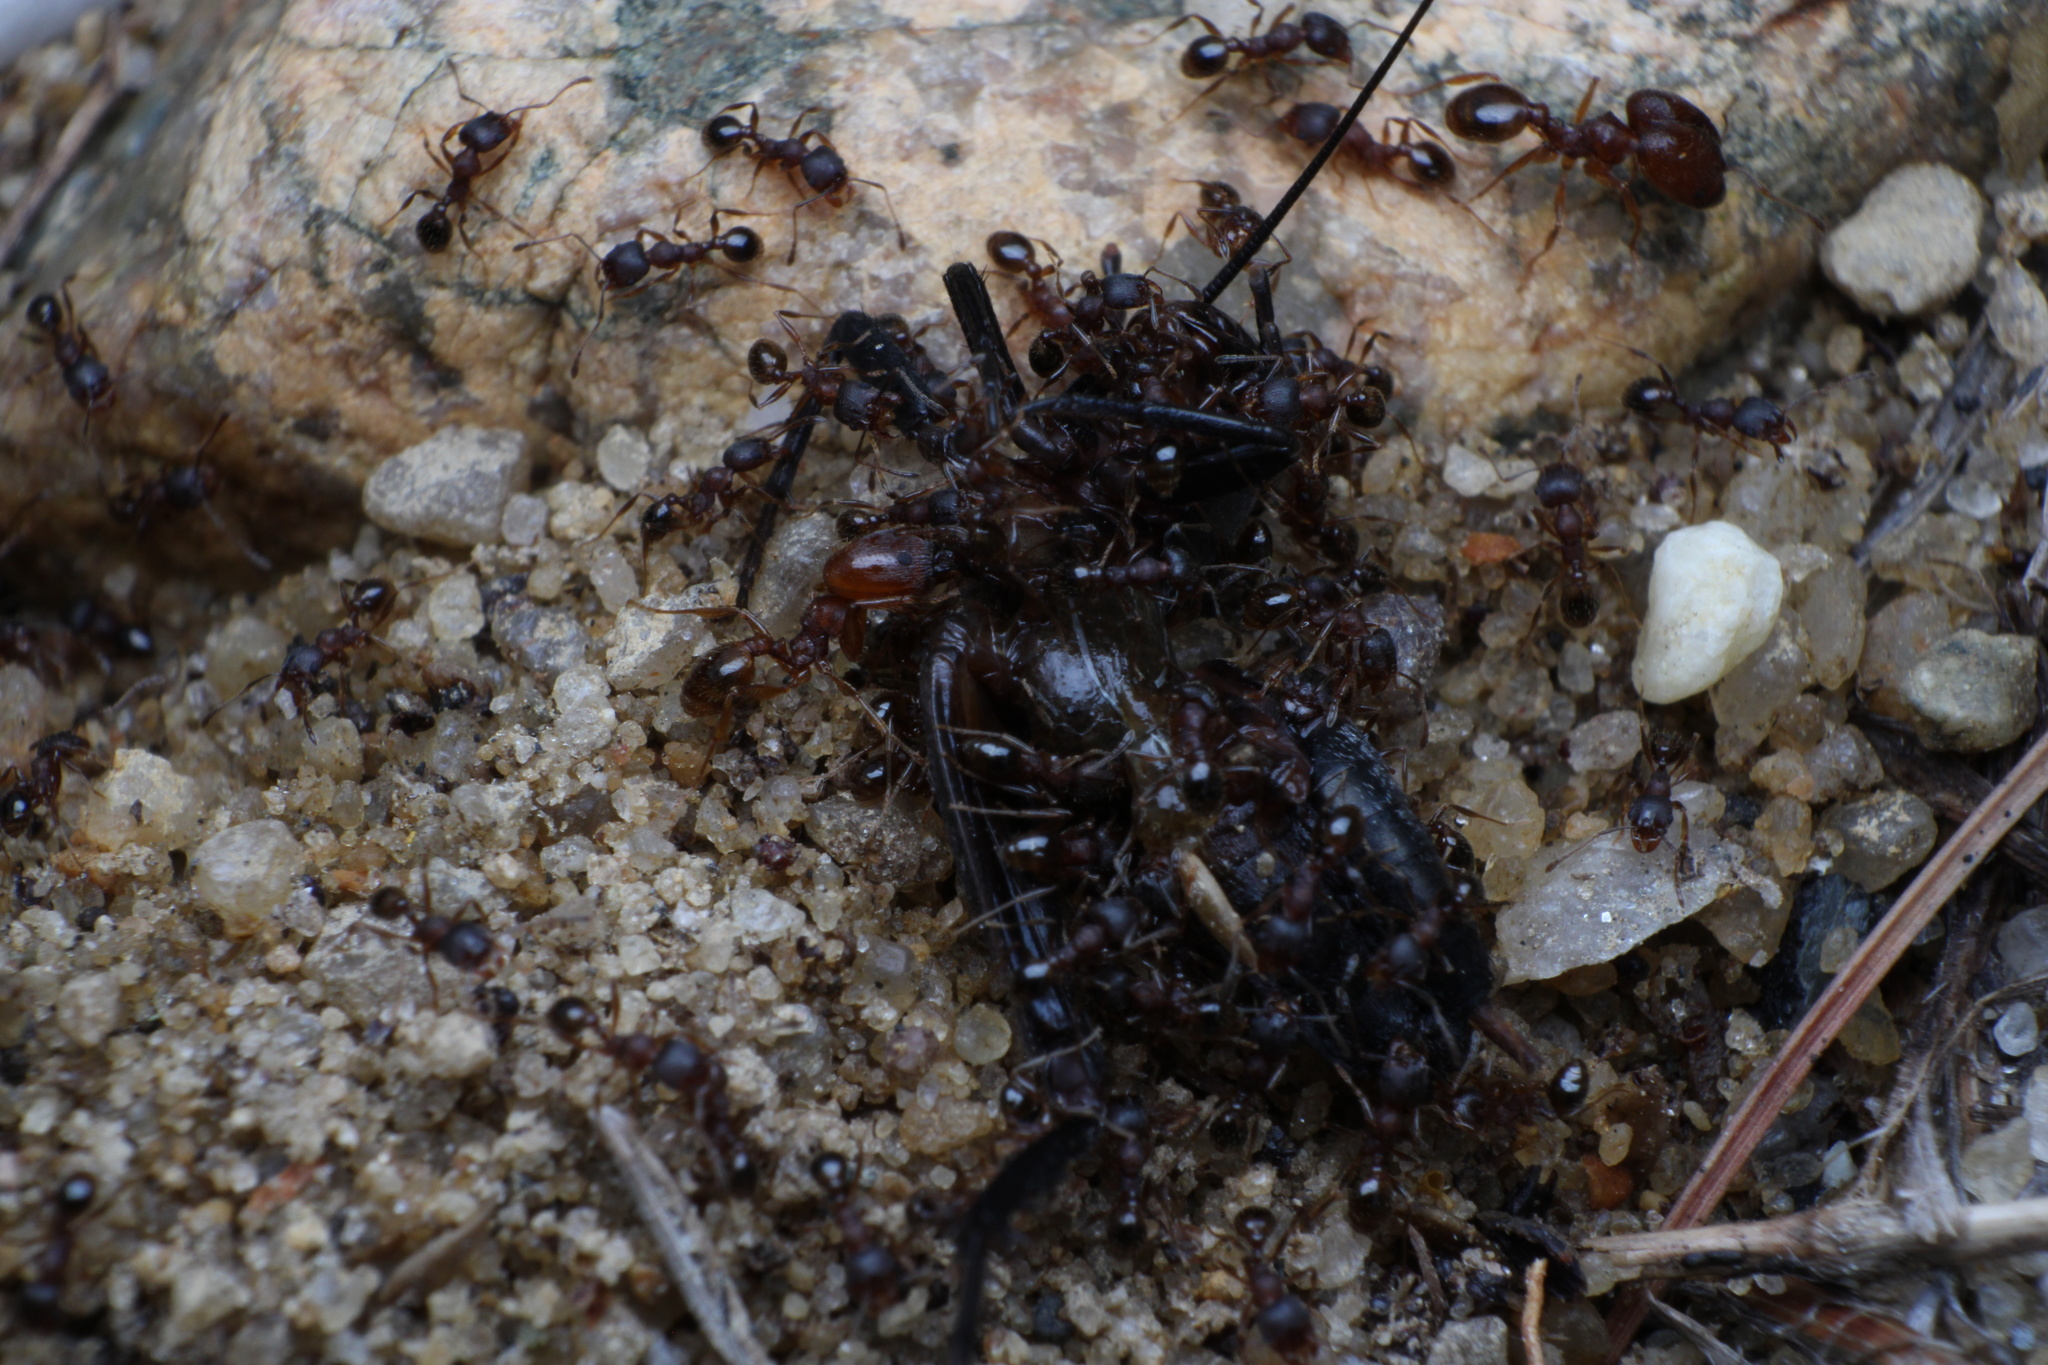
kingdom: Animalia
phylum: Arthropoda
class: Insecta
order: Hymenoptera
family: Formicidae
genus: Pheidole
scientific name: Pheidole pilifera
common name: Hairy big-headed ant
